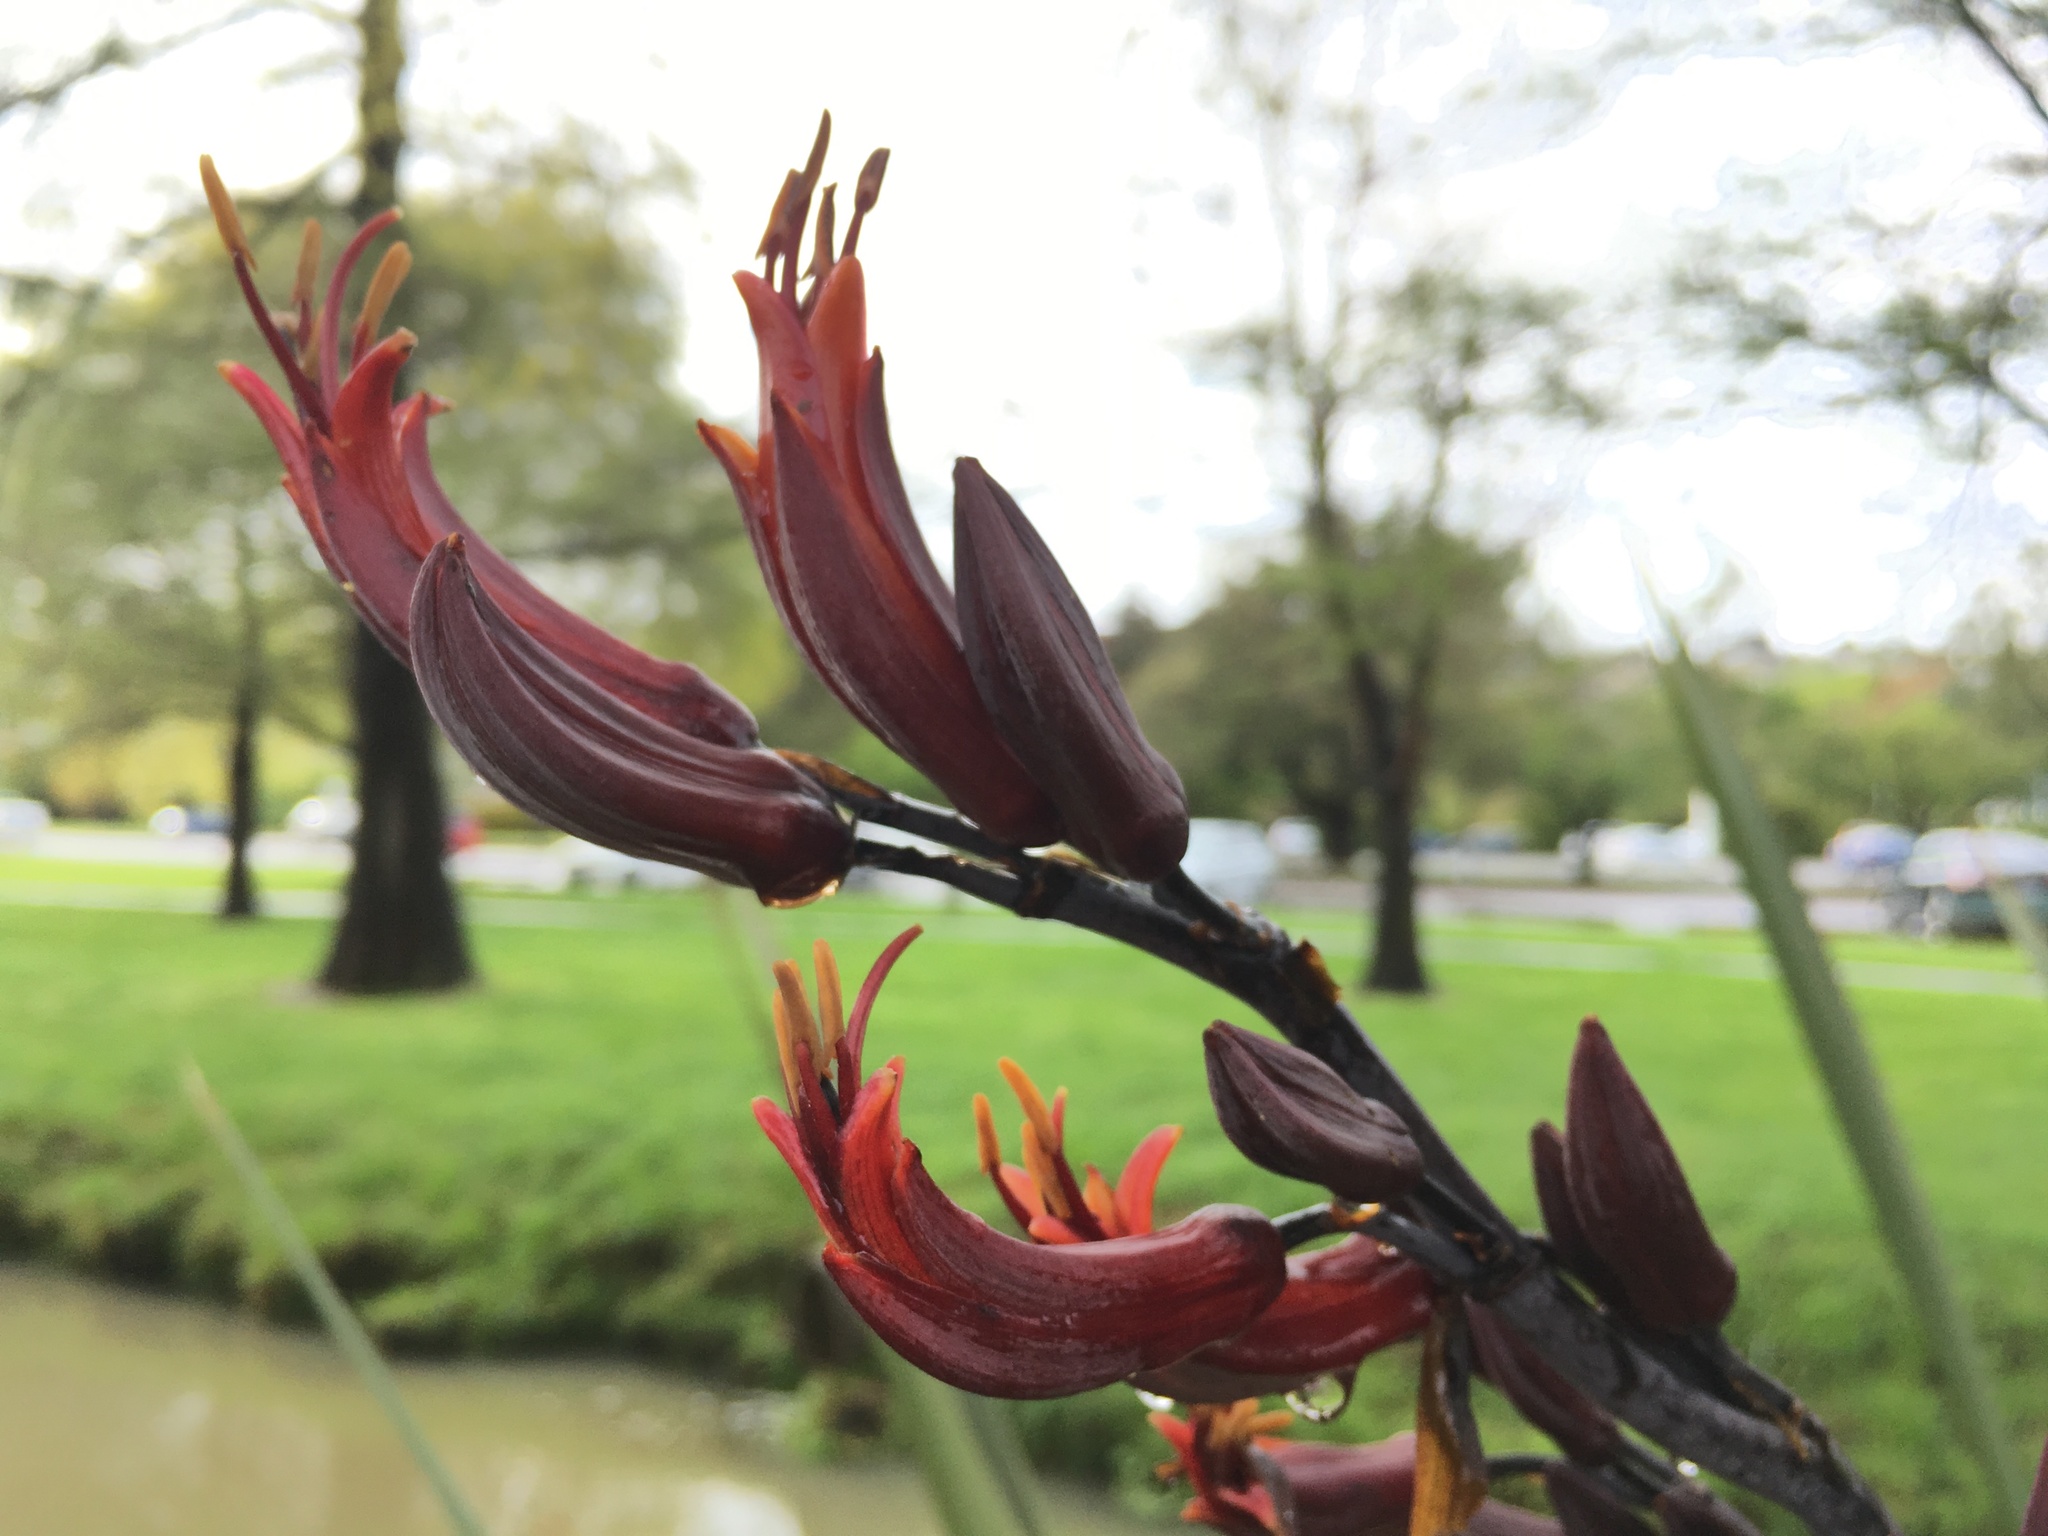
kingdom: Plantae
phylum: Tracheophyta
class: Liliopsida
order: Asparagales
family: Asphodelaceae
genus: Phormium
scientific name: Phormium tenax
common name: New zealand flax
